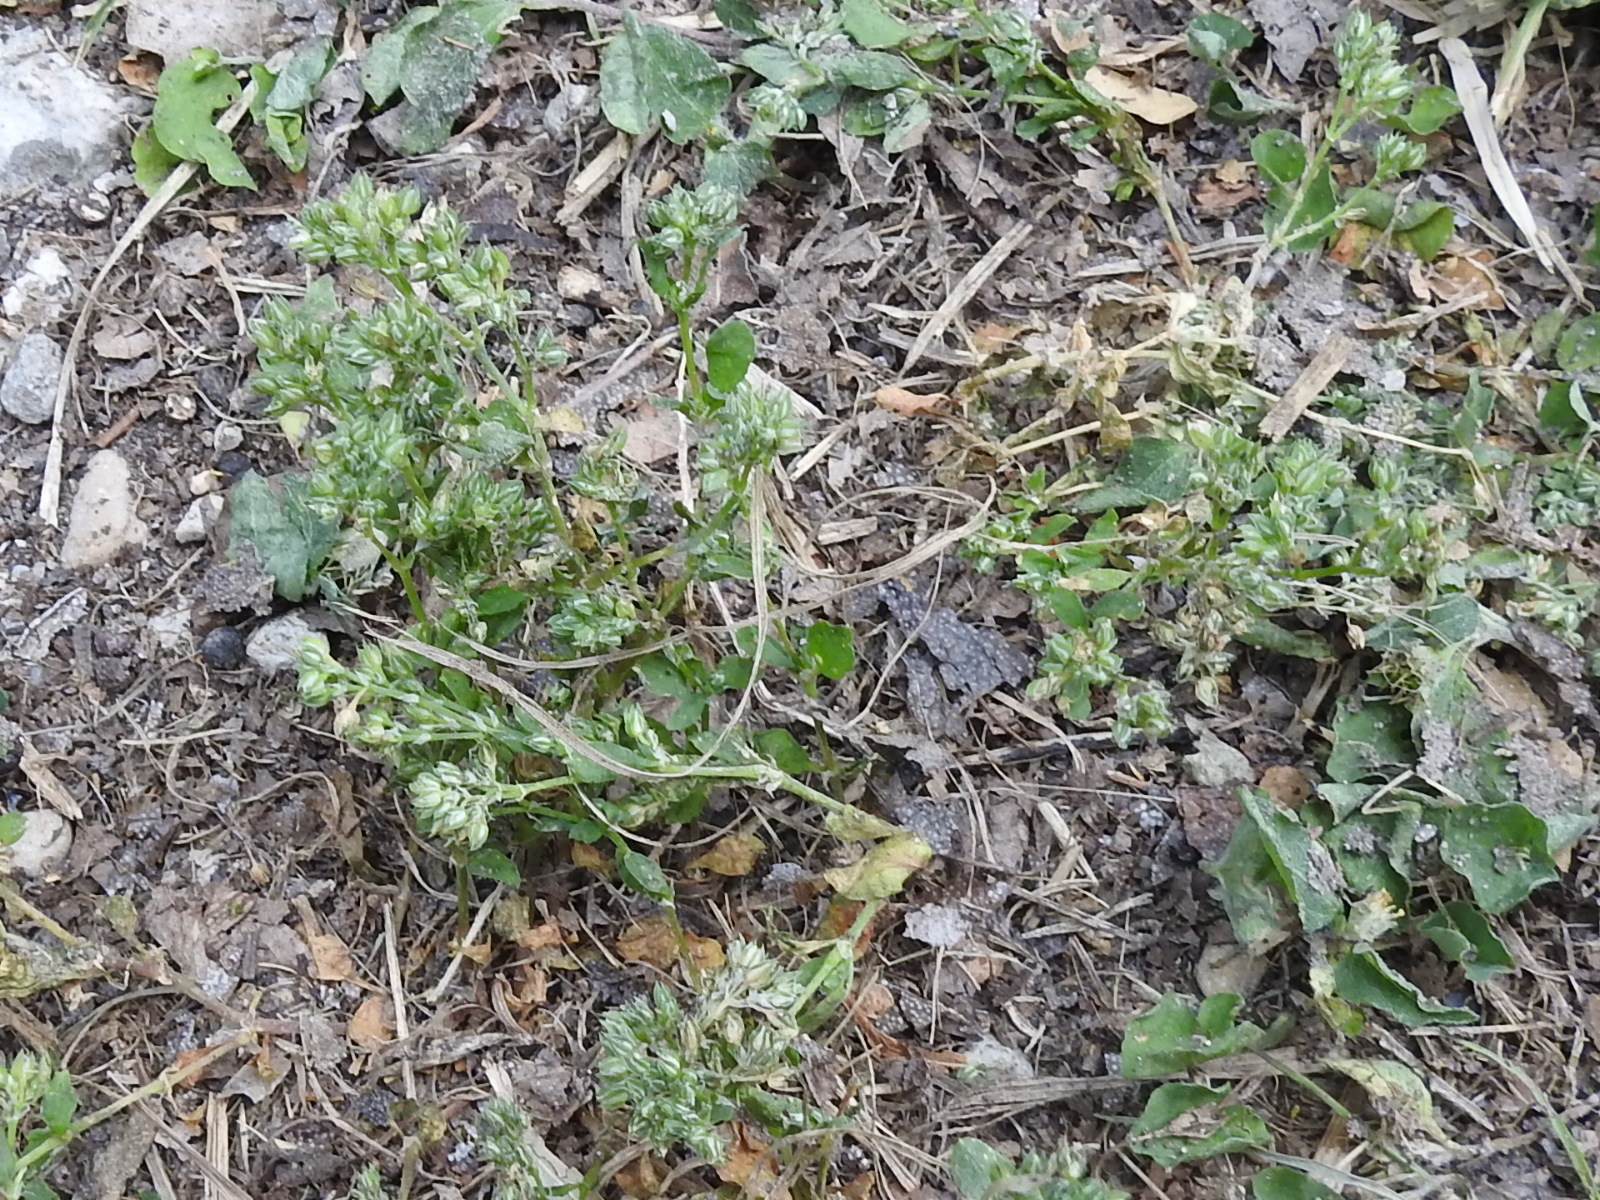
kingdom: Plantae
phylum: Tracheophyta
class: Magnoliopsida
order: Caryophyllales
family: Caryophyllaceae
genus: Polycarpon
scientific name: Polycarpon tetraphyllum
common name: Four-leaved all-seed
